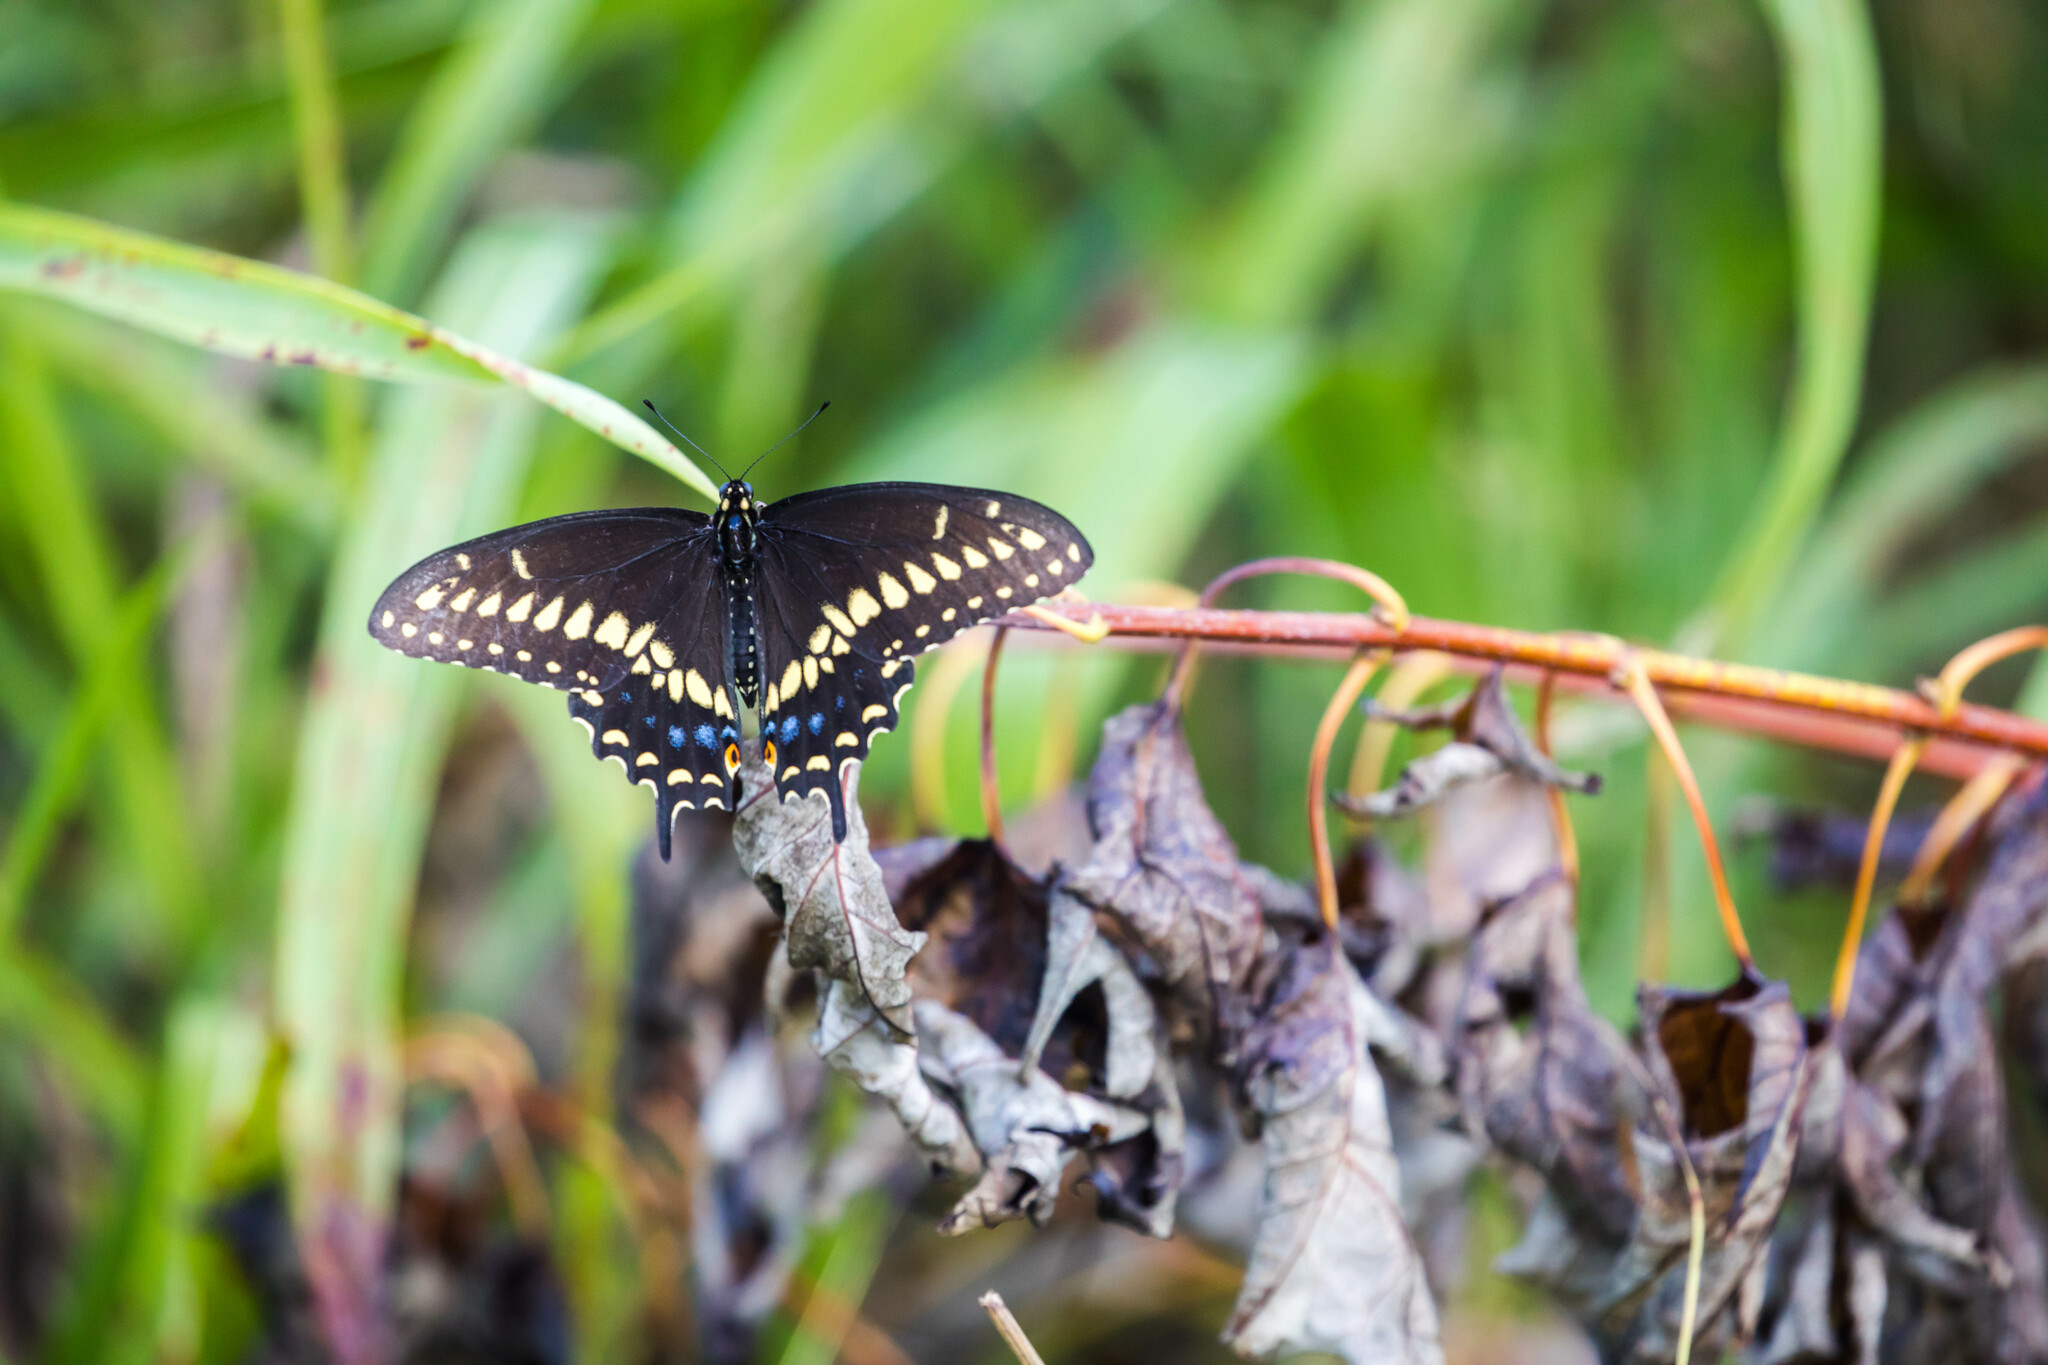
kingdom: Animalia
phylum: Arthropoda
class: Insecta
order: Lepidoptera
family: Papilionidae
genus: Papilio
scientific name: Papilio polyxenes
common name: Black swallowtail
